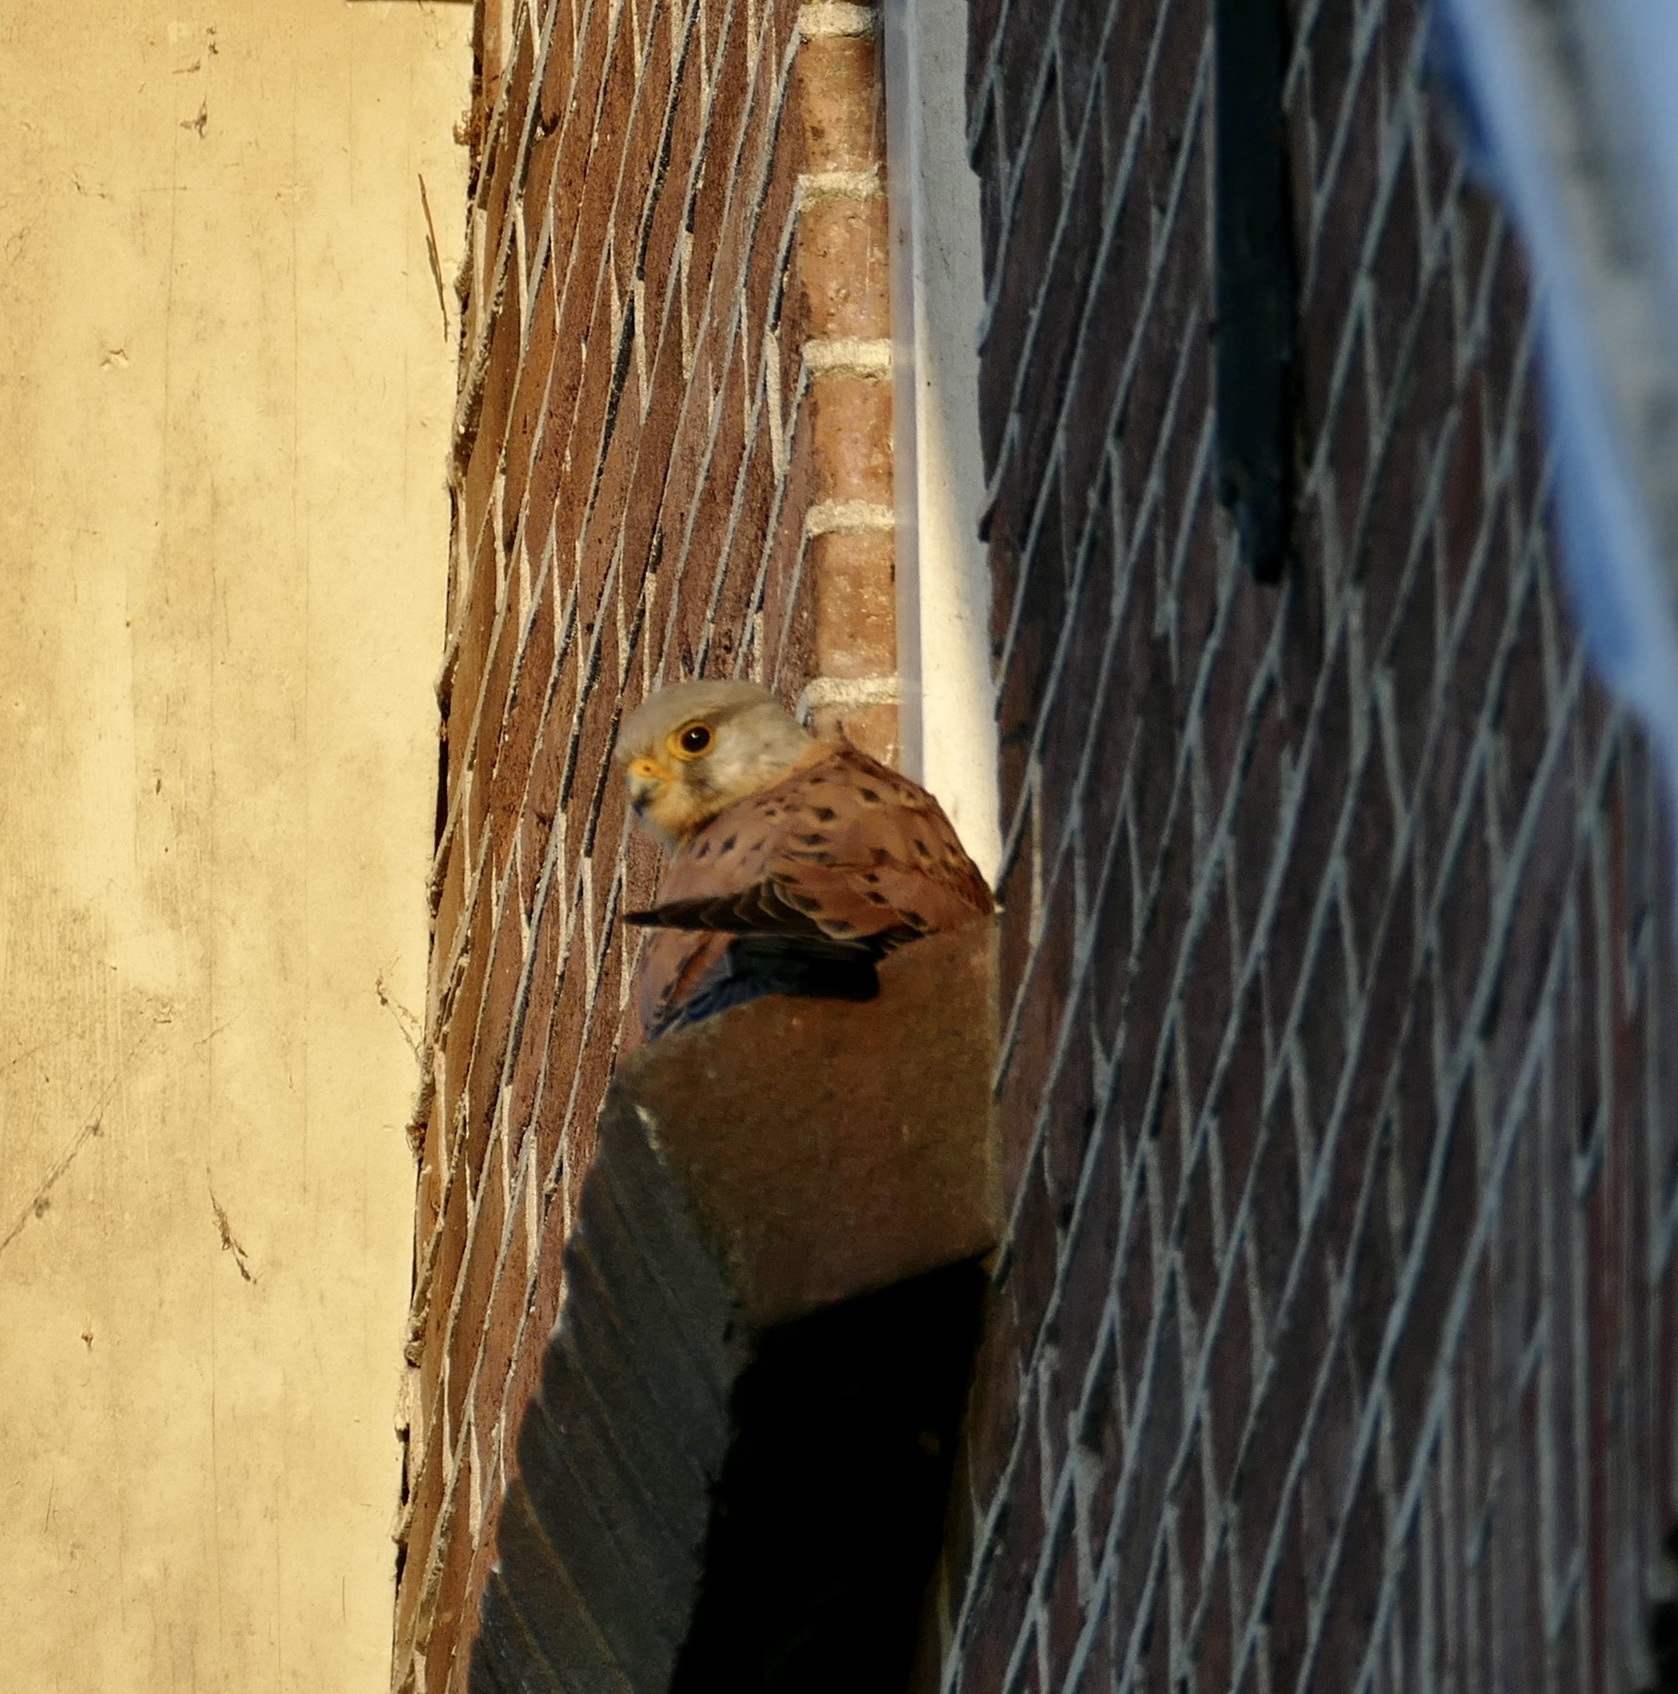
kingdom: Animalia
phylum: Chordata
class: Aves
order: Falconiformes
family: Falconidae
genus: Falco
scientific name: Falco tinnunculus
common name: Common kestrel
